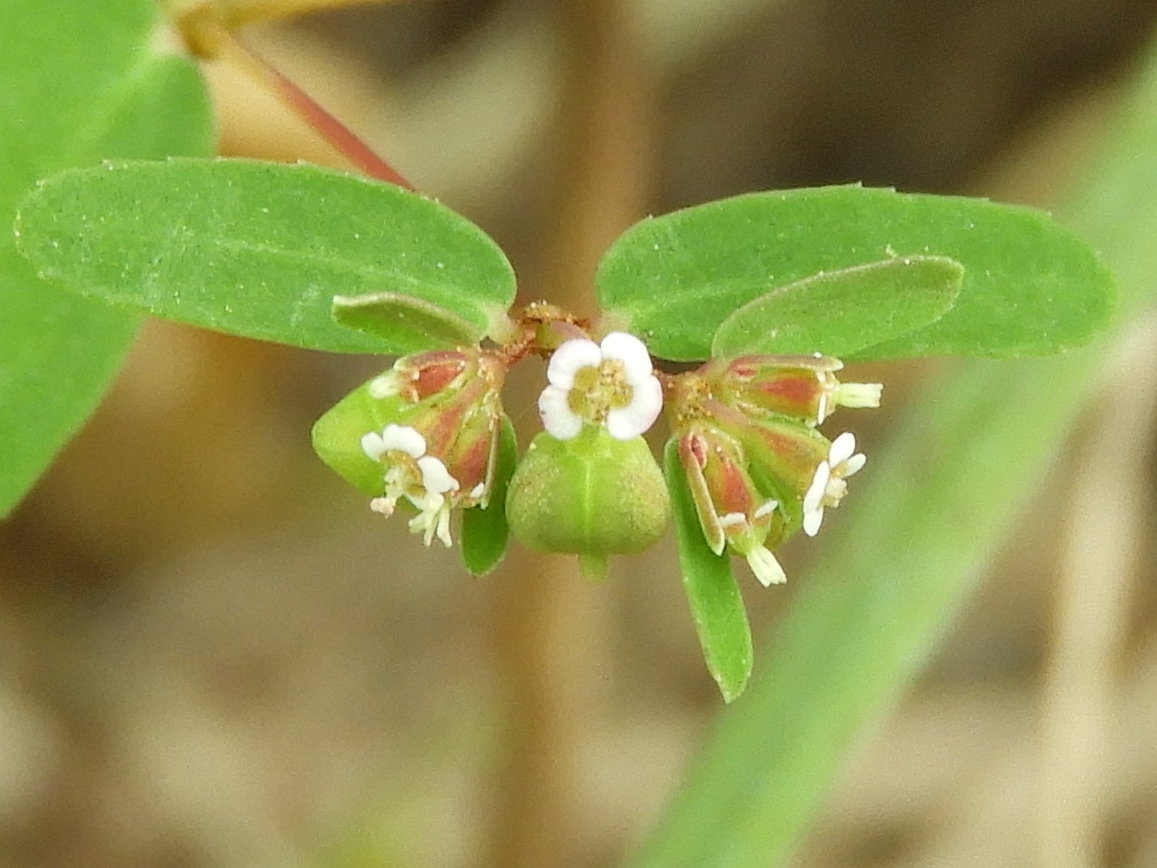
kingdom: Plantae
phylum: Tracheophyta
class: Magnoliopsida
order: Malpighiales
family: Euphorbiaceae
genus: Euphorbia
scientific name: Euphorbia hyssopifolia
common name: Hyssopleaf sandmat
